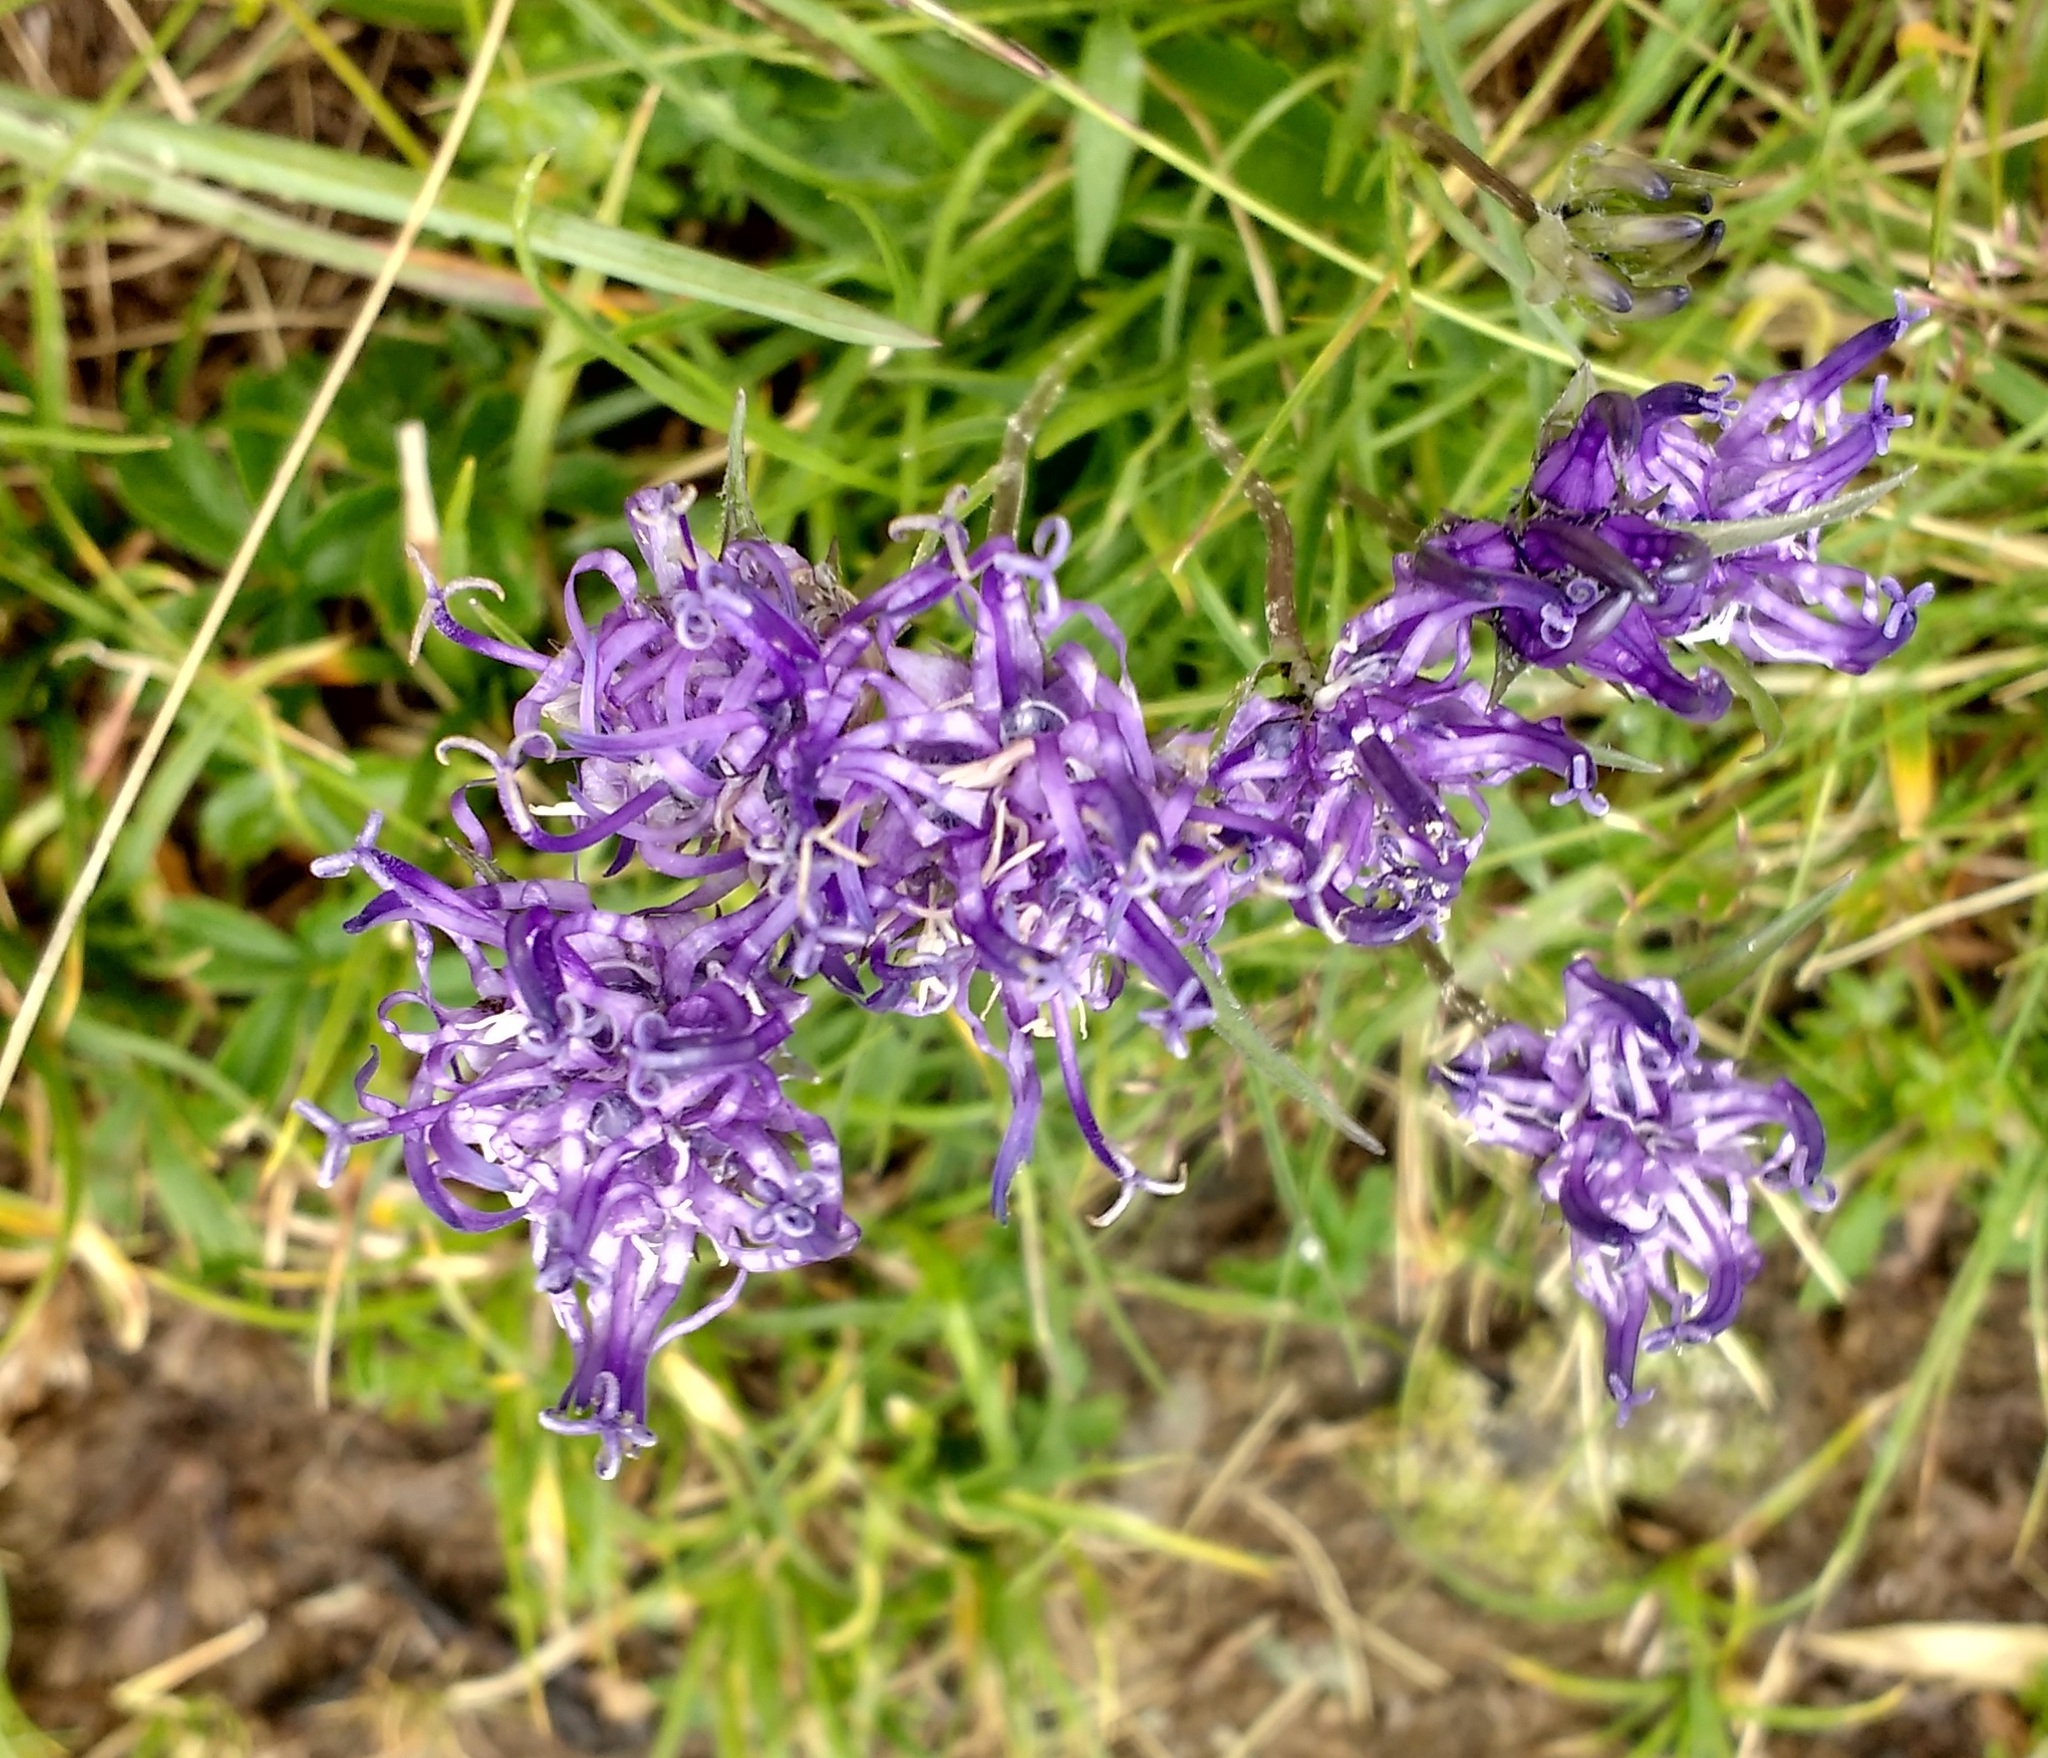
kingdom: Plantae
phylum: Tracheophyta
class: Magnoliopsida
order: Asterales
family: Campanulaceae
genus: Phyteuma
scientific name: Phyteuma hemisphaericum
